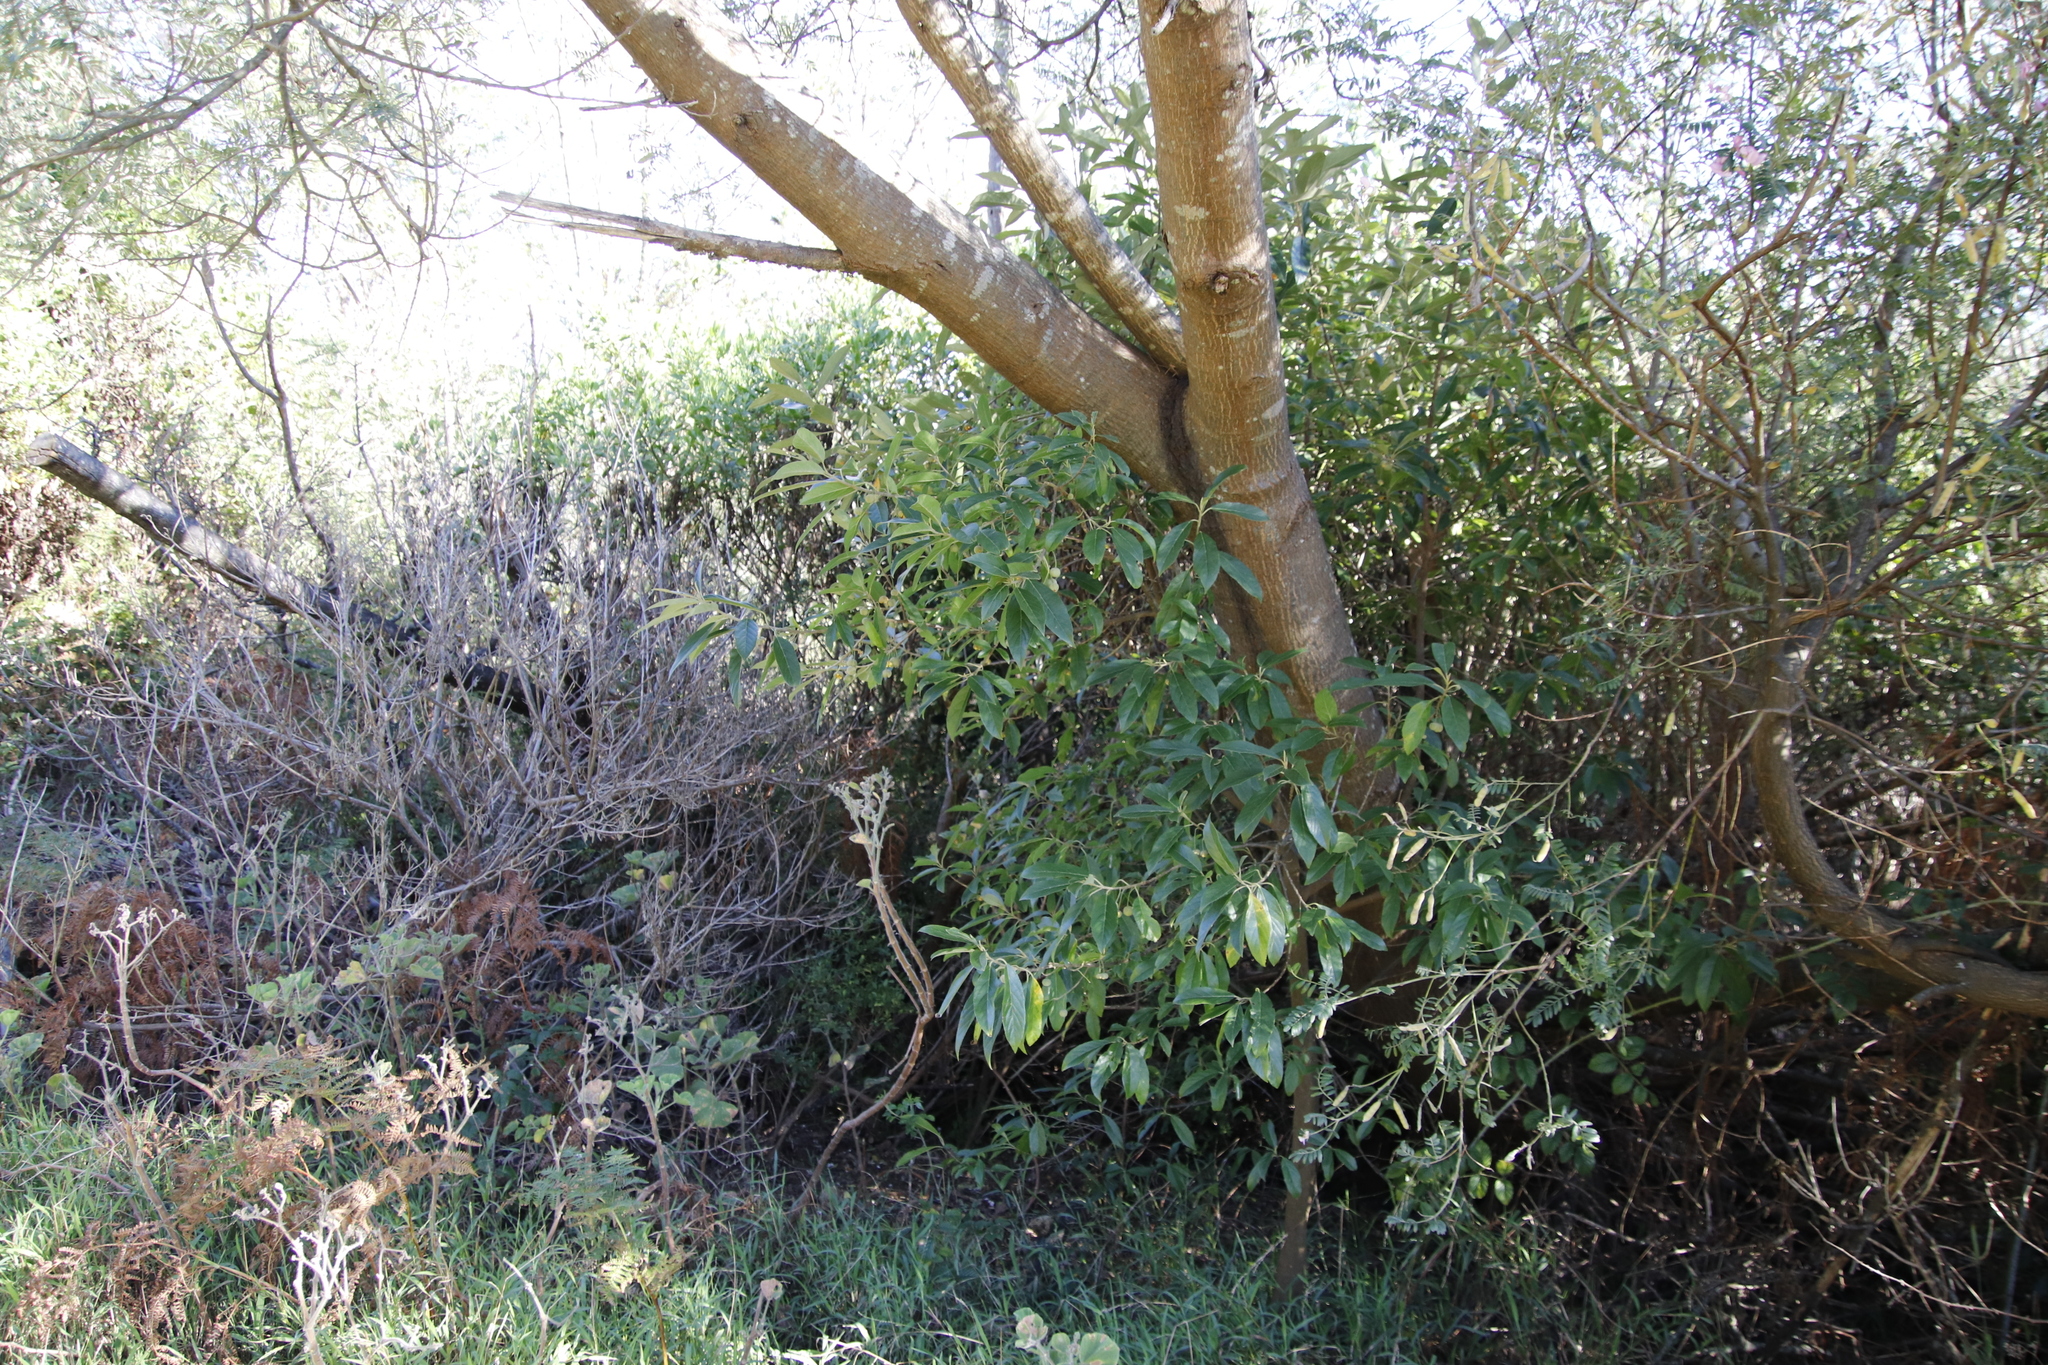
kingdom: Plantae
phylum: Tracheophyta
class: Magnoliopsida
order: Malpighiales
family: Achariaceae
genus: Kiggelaria
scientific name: Kiggelaria africana
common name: Wild peach
